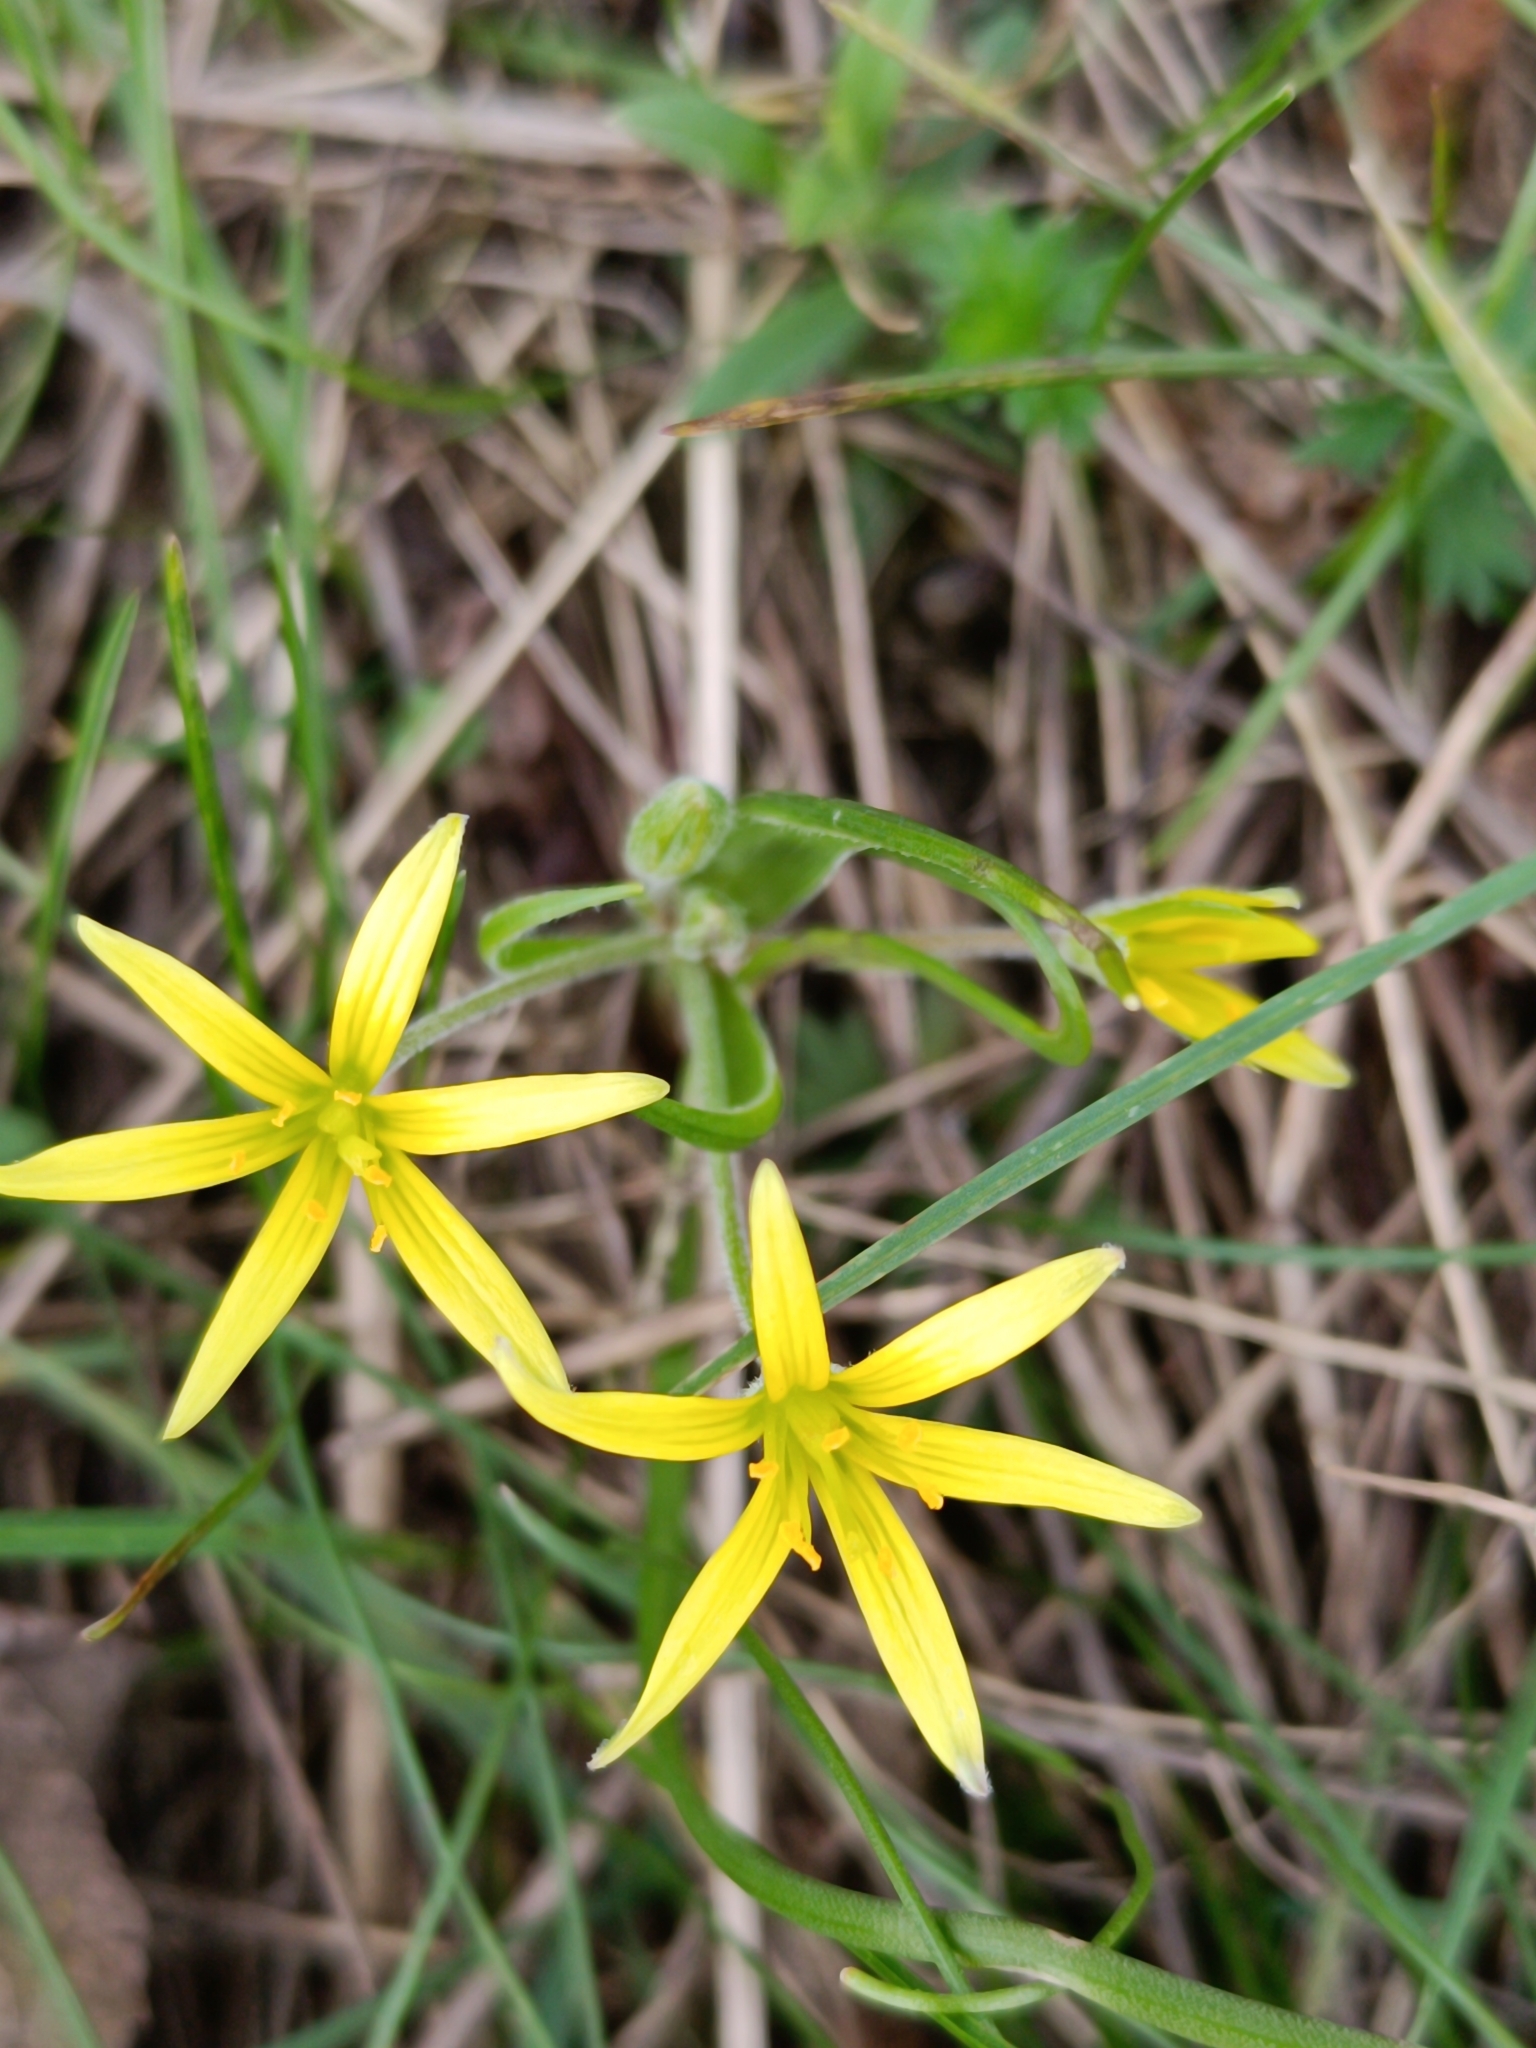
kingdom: Plantae
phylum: Tracheophyta
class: Liliopsida
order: Liliales
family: Liliaceae
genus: Gagea
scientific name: Gagea villosa
